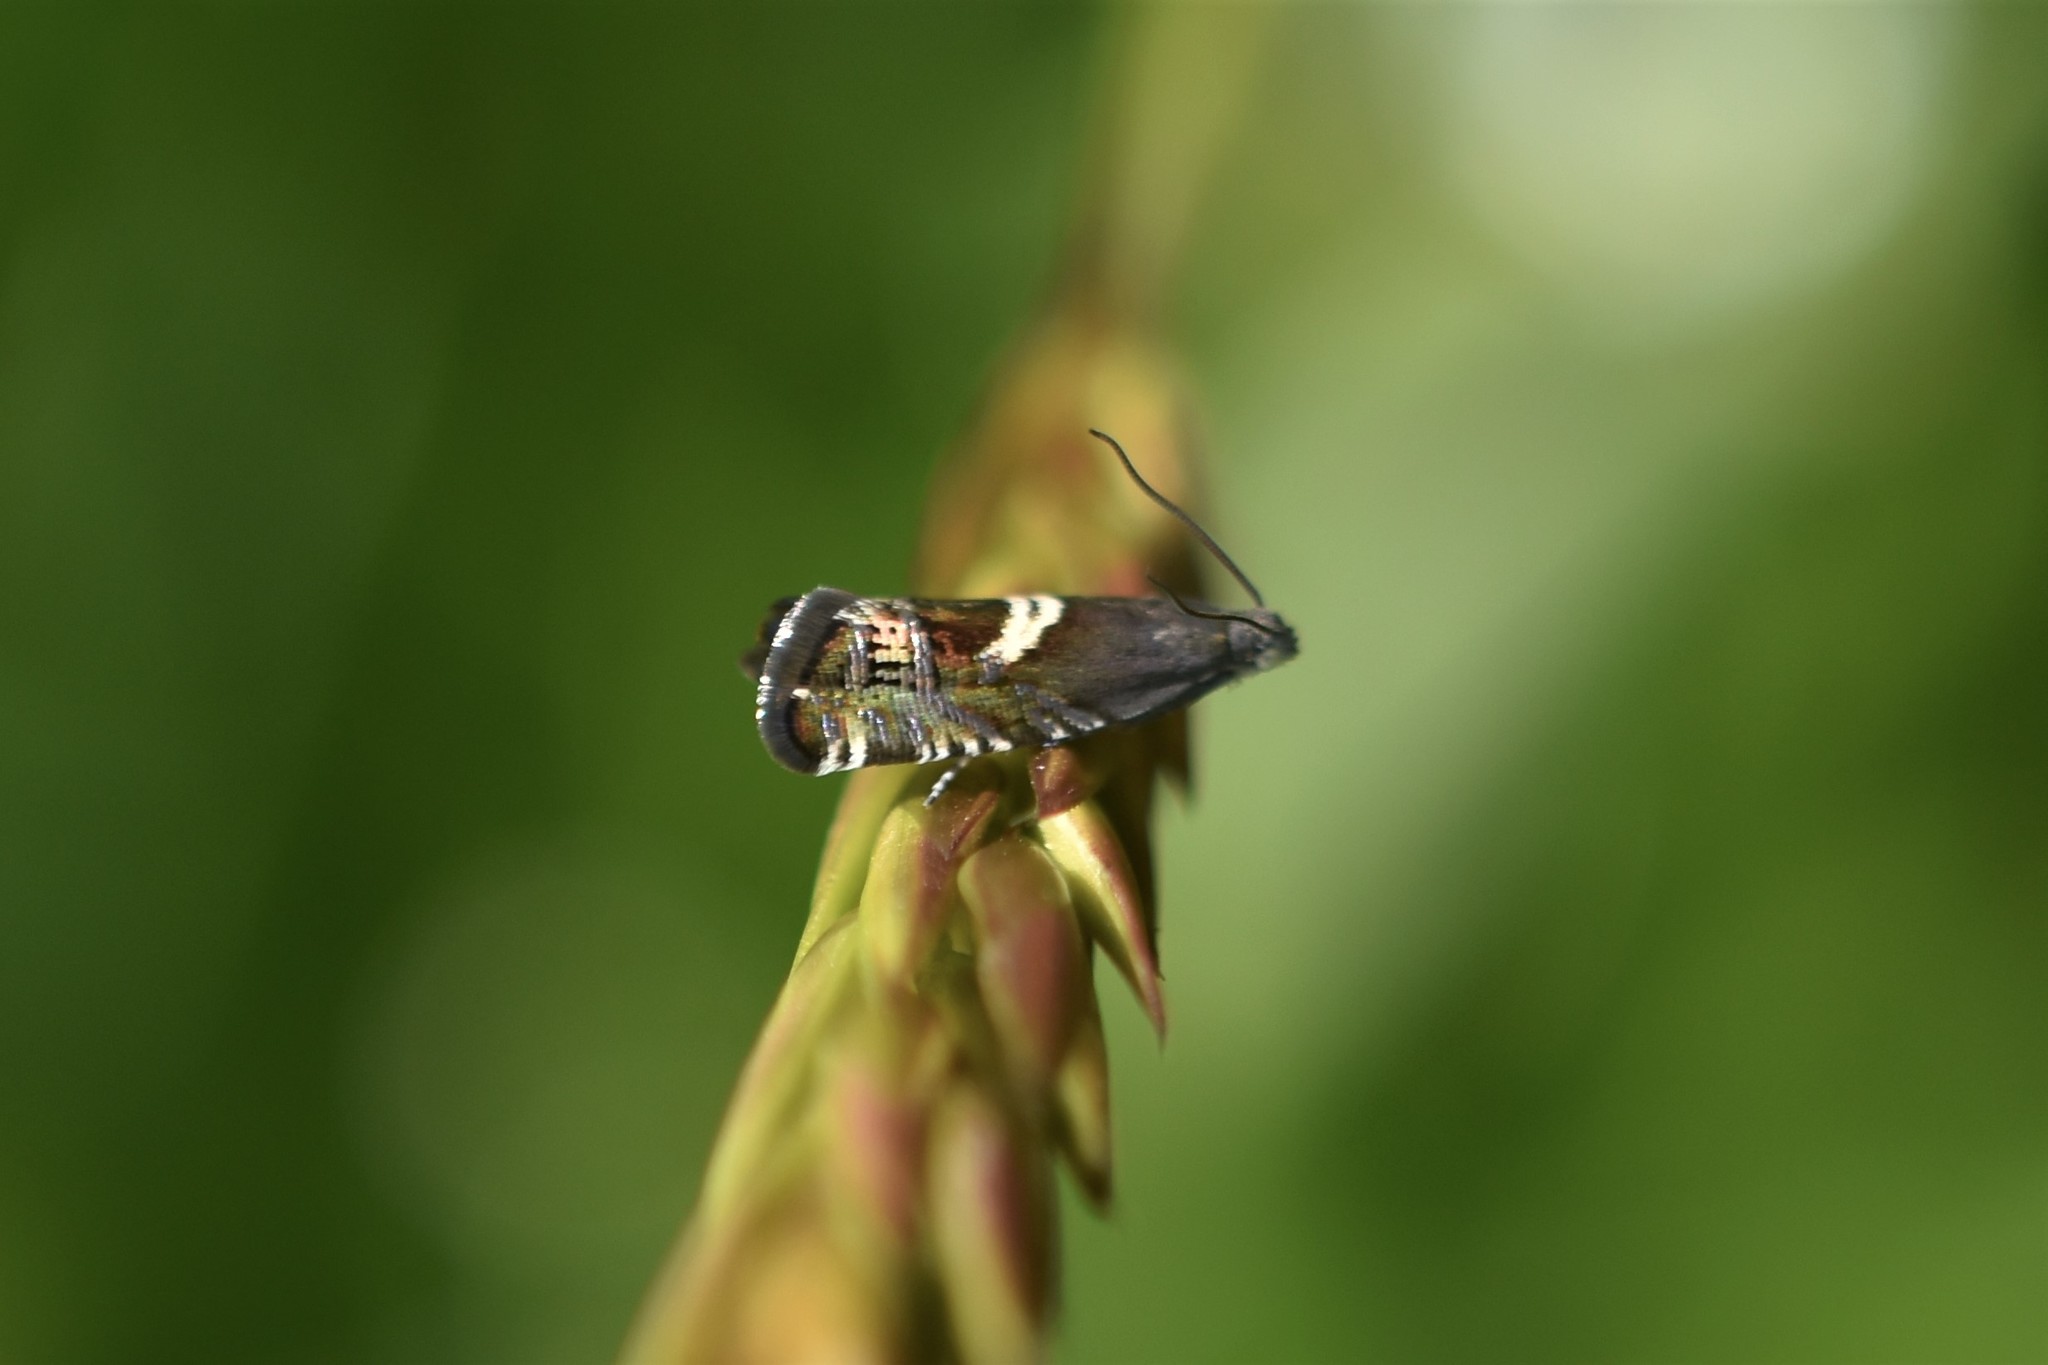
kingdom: Animalia
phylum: Arthropoda
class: Insecta
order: Lepidoptera
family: Tortricidae
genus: Grapholita
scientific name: Grapholita
